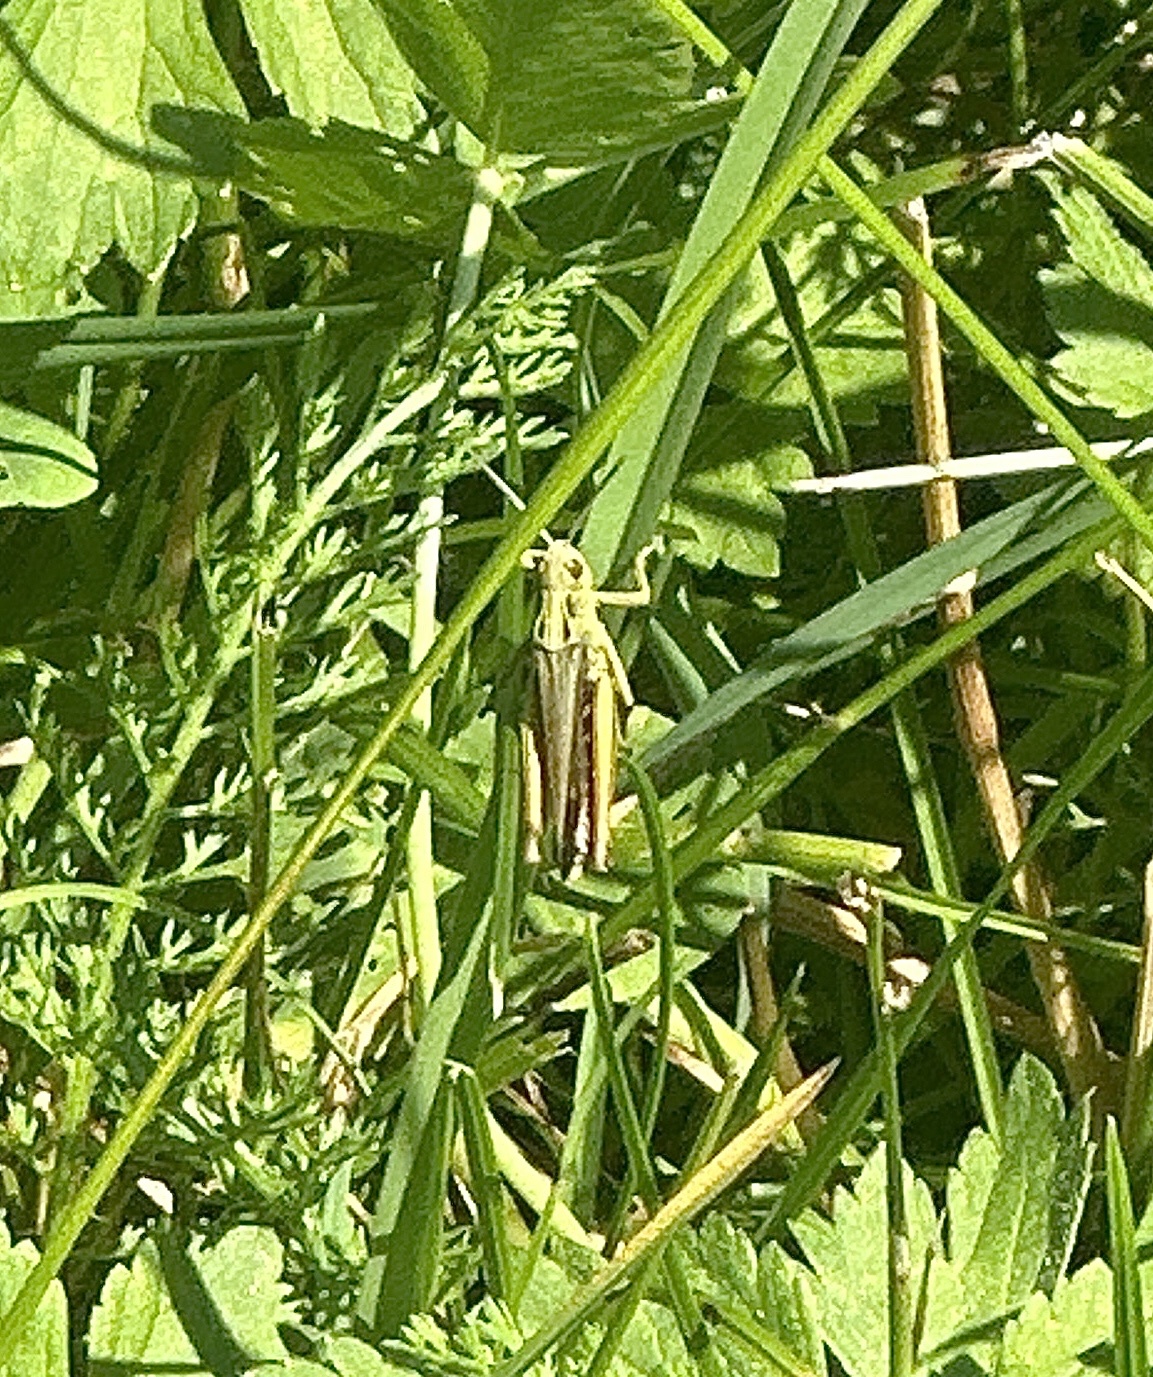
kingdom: Animalia
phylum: Arthropoda
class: Insecta
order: Orthoptera
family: Acrididae
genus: Omocestus
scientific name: Omocestus viridulus
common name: Common green grasshopper
